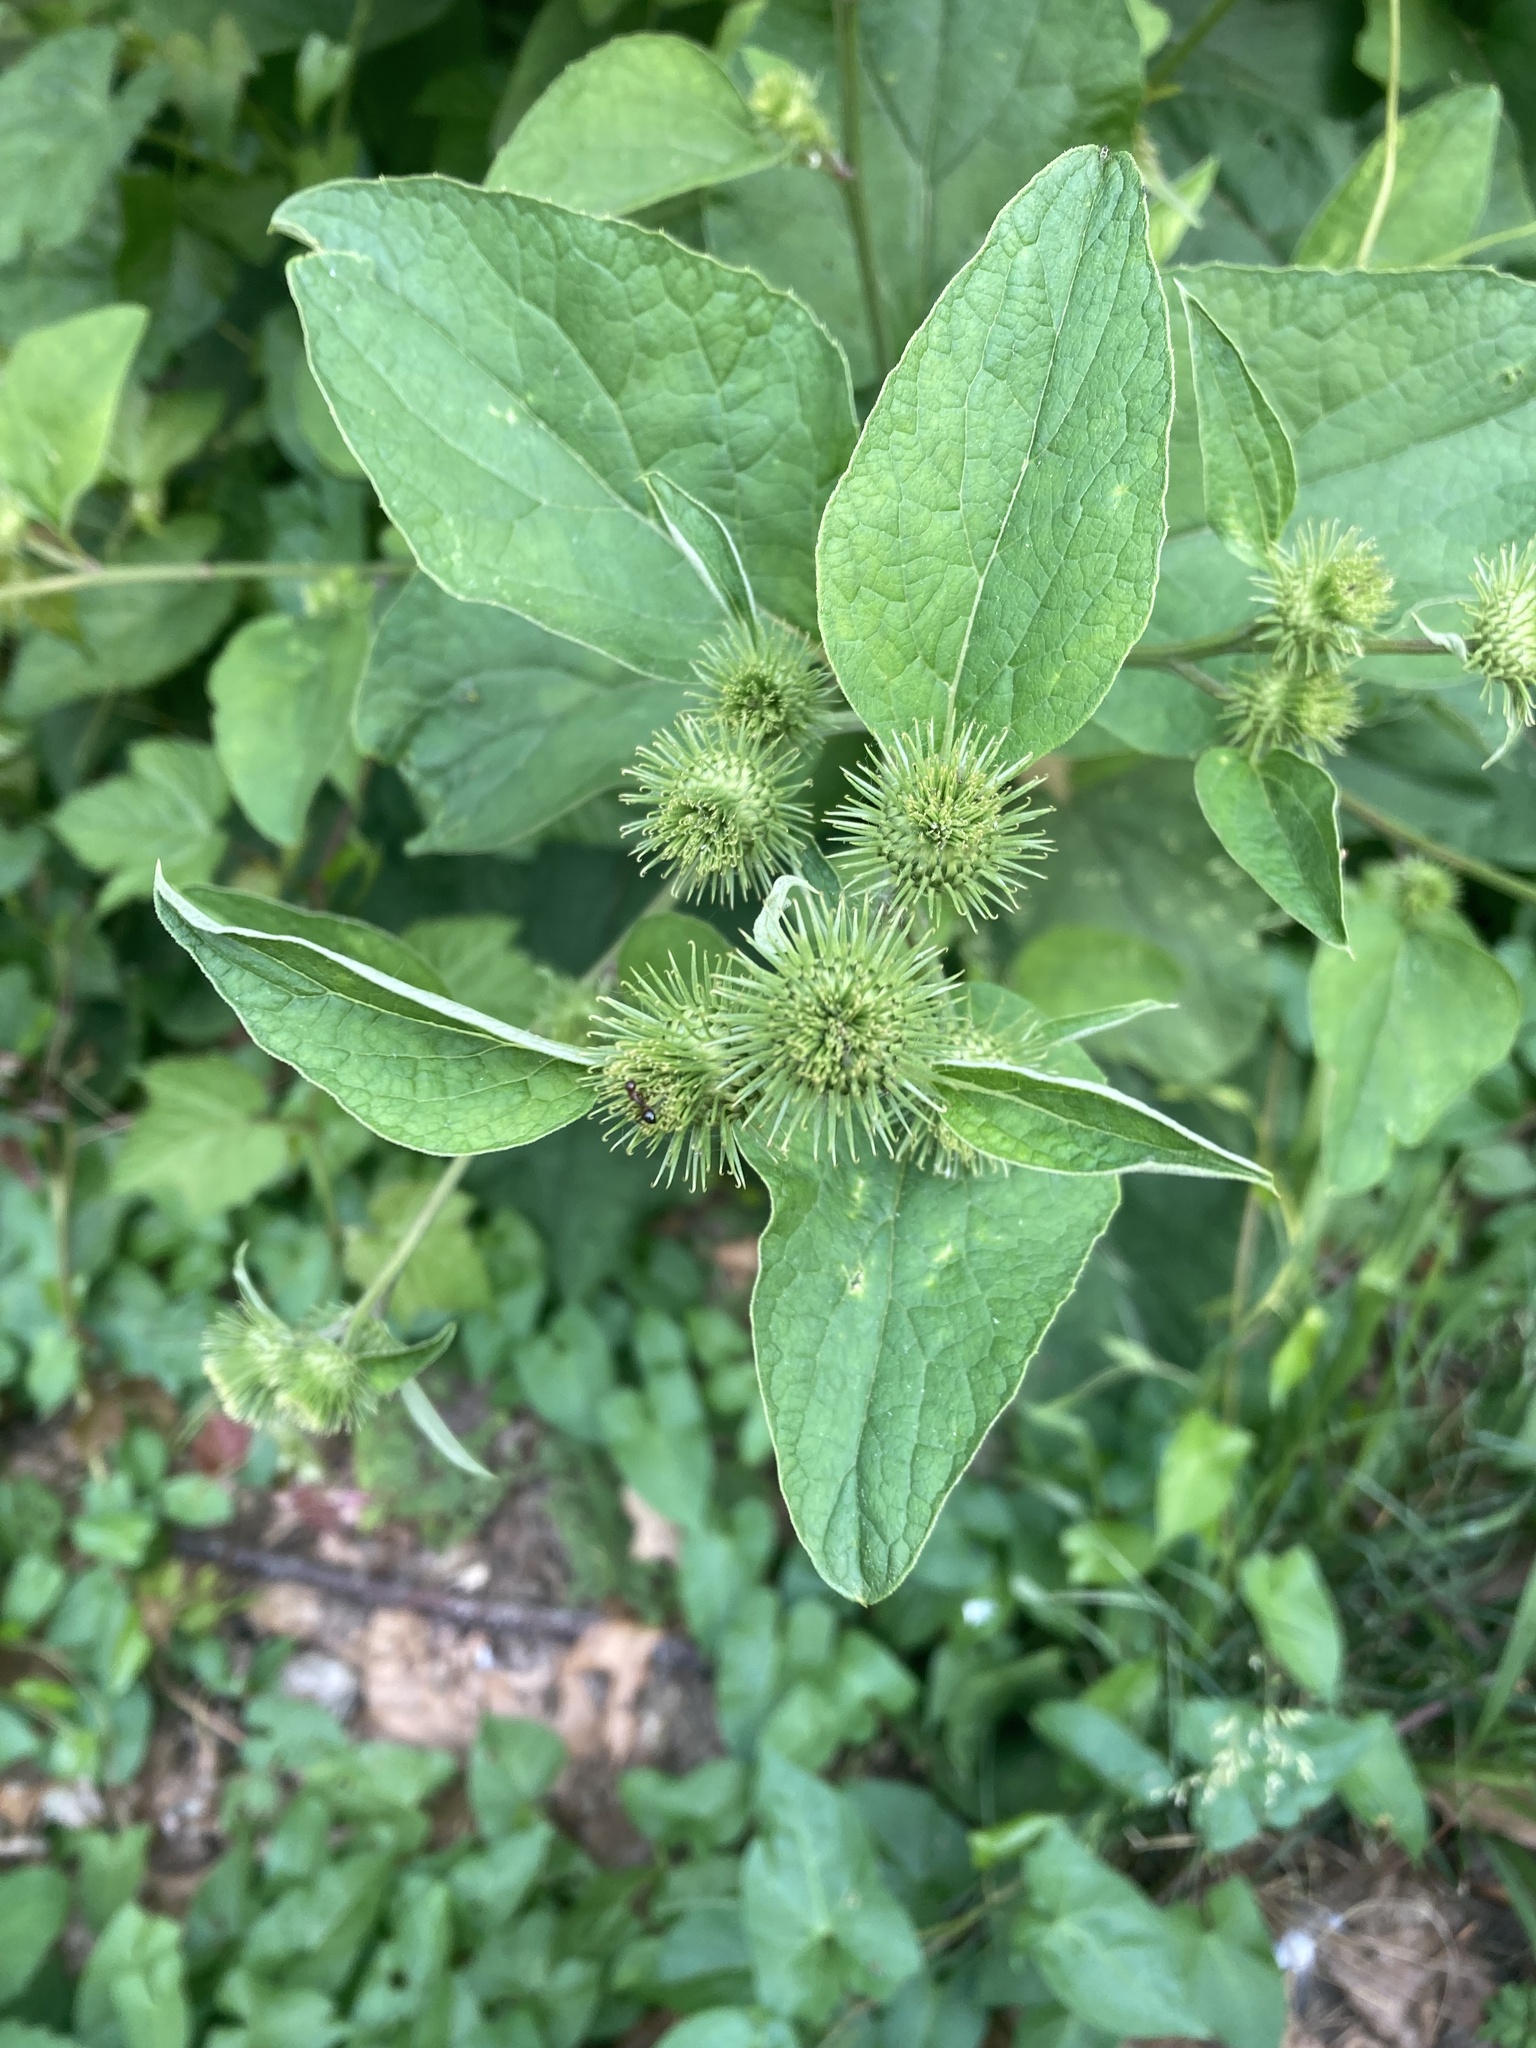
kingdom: Plantae
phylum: Tracheophyta
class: Magnoliopsida
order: Asterales
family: Asteraceae
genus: Arctium
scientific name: Arctium minus
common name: Lesser burdock
